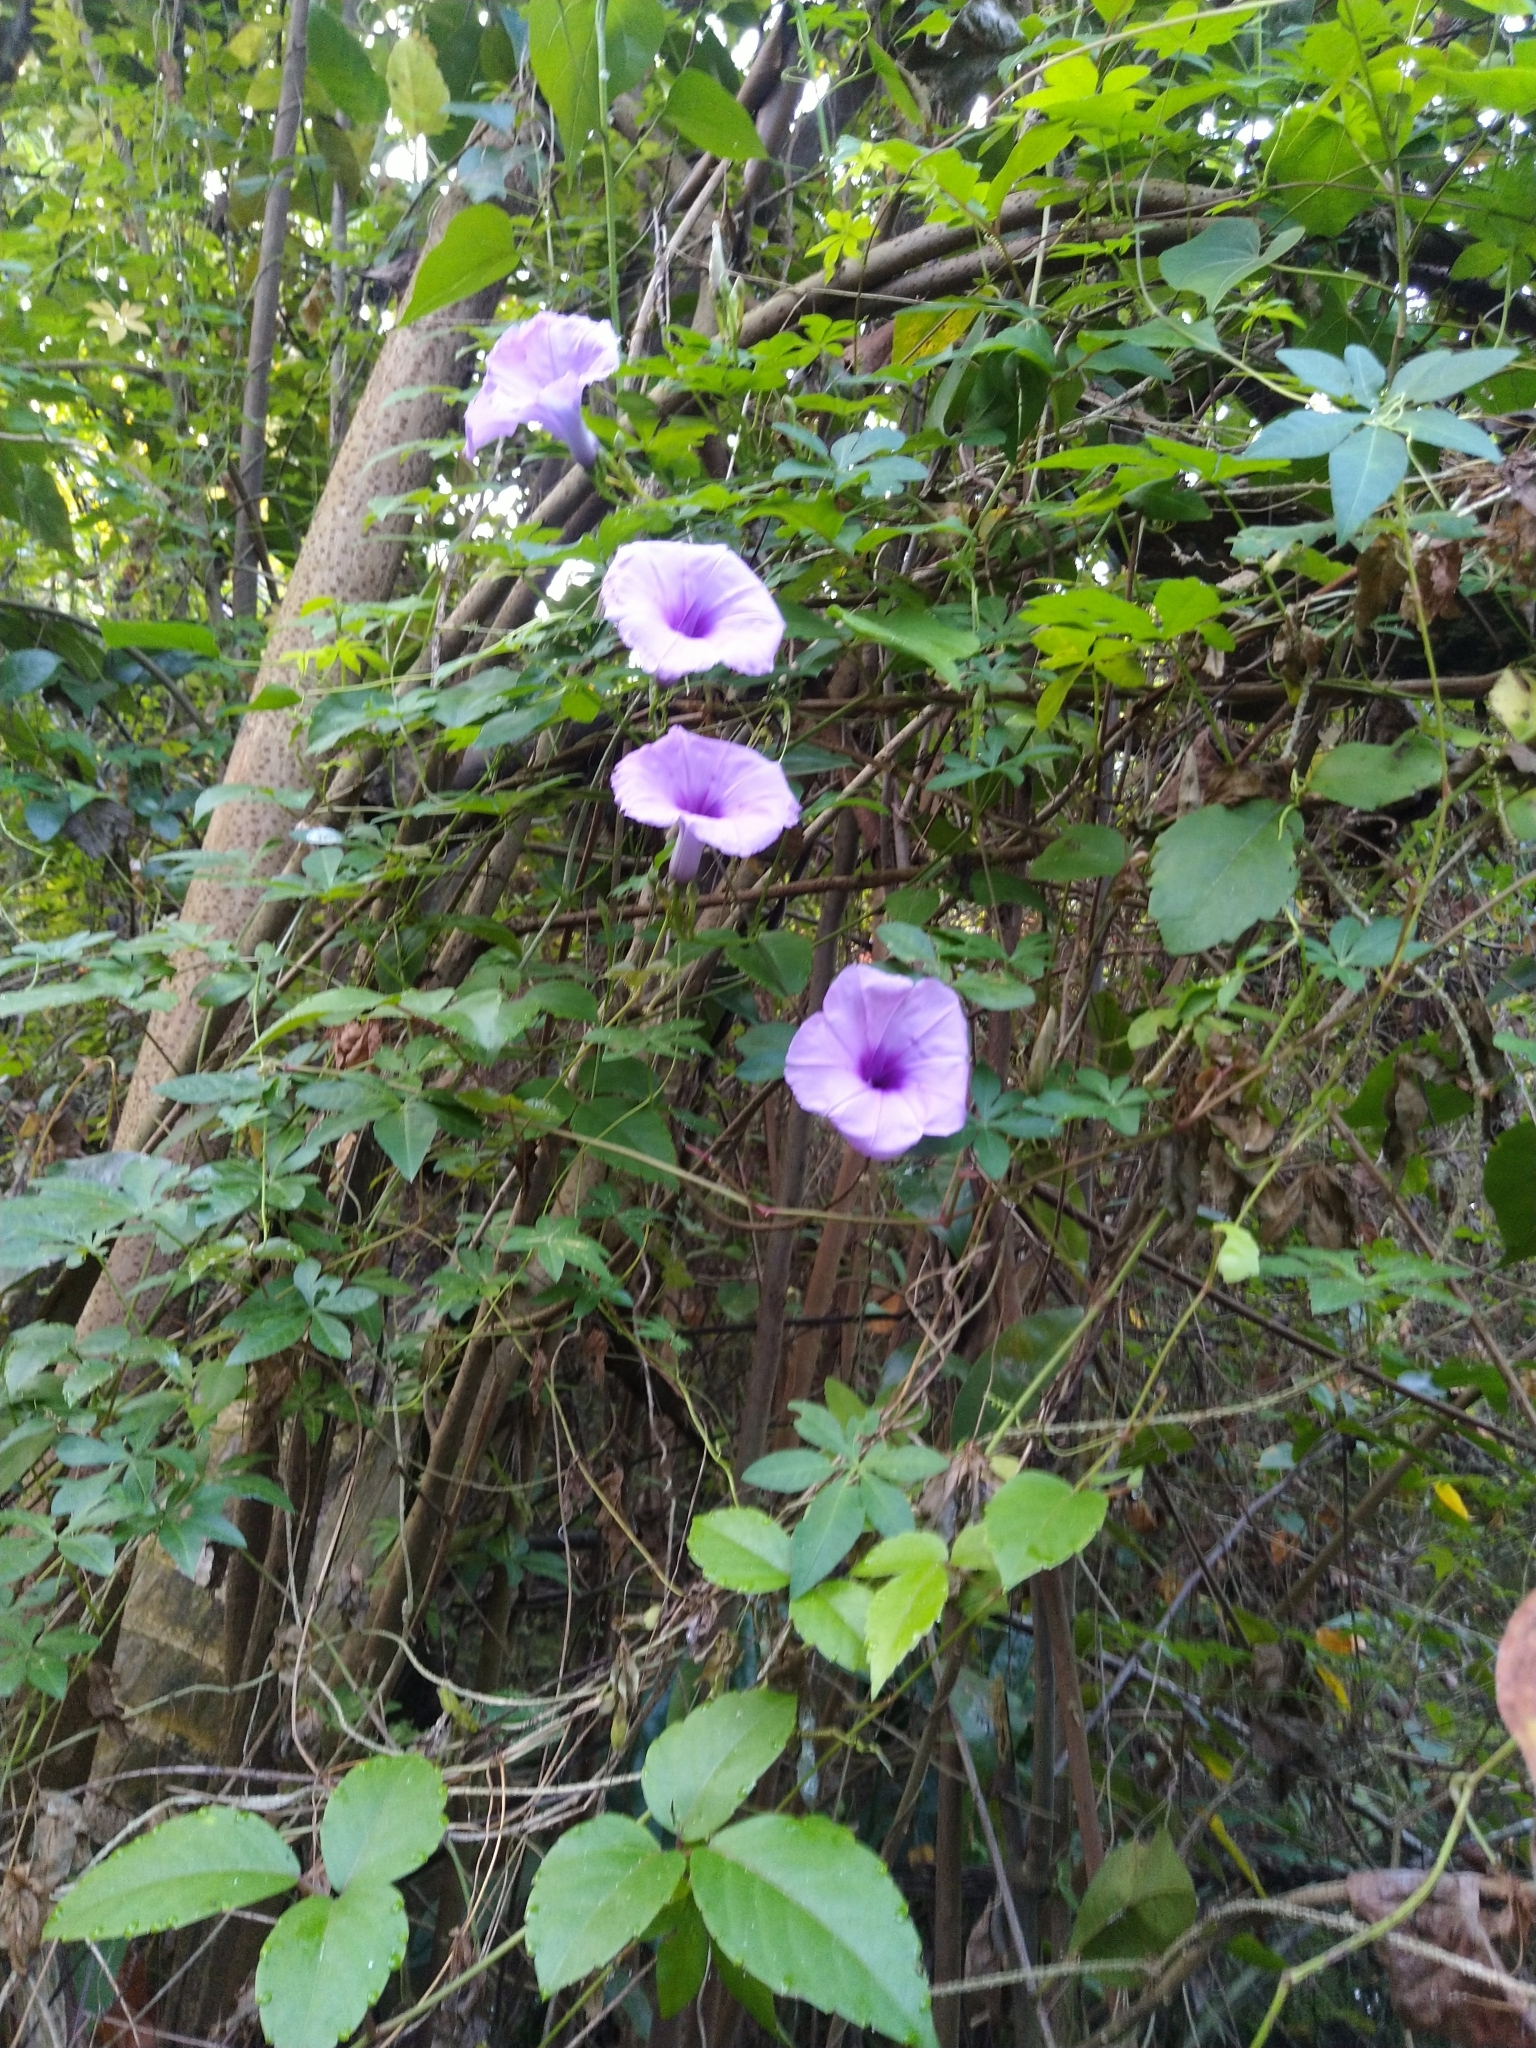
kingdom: Plantae
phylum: Tracheophyta
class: Magnoliopsida
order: Solanales
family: Convolvulaceae
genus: Ipomoea
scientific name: Ipomoea cairica
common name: Mile a minute vine
